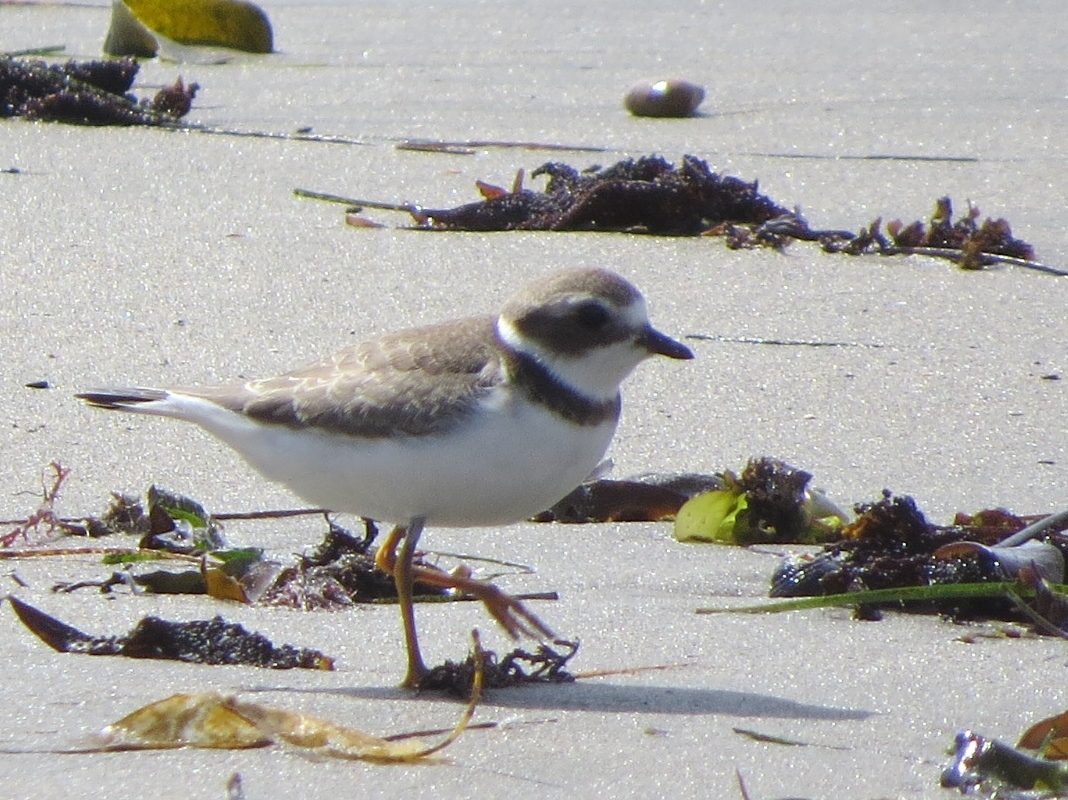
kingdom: Animalia
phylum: Chordata
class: Aves
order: Charadriiformes
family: Charadriidae
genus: Charadrius
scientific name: Charadrius semipalmatus
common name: Semipalmated plover
